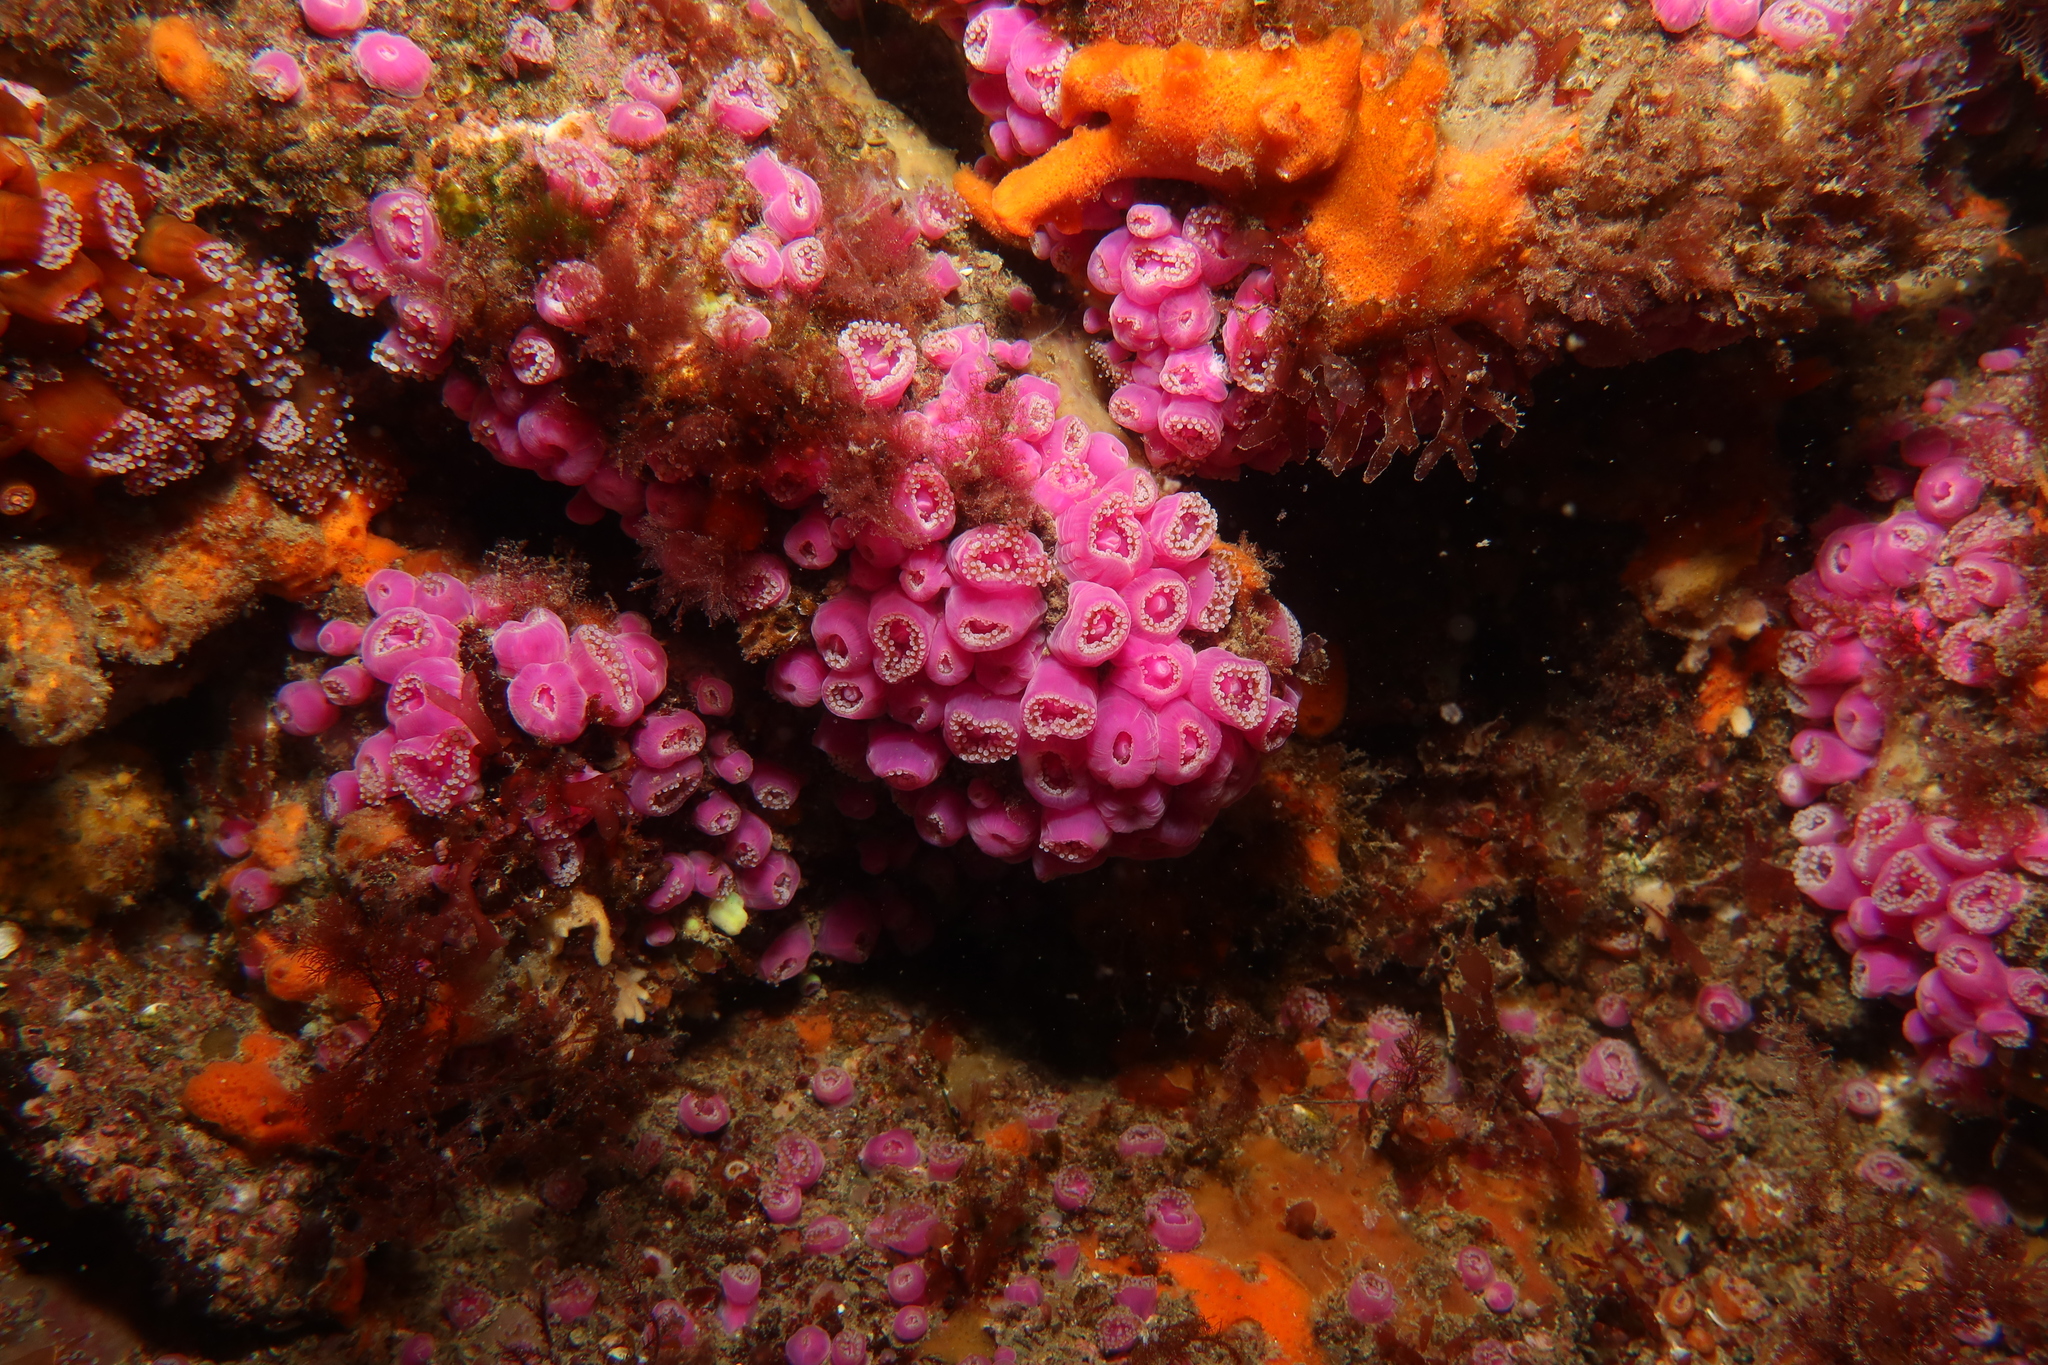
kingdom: Animalia
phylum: Cnidaria
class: Anthozoa
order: Corallimorpharia
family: Corallimorphidae
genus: Corynactis
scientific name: Corynactis viridis
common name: Jewel anemone
